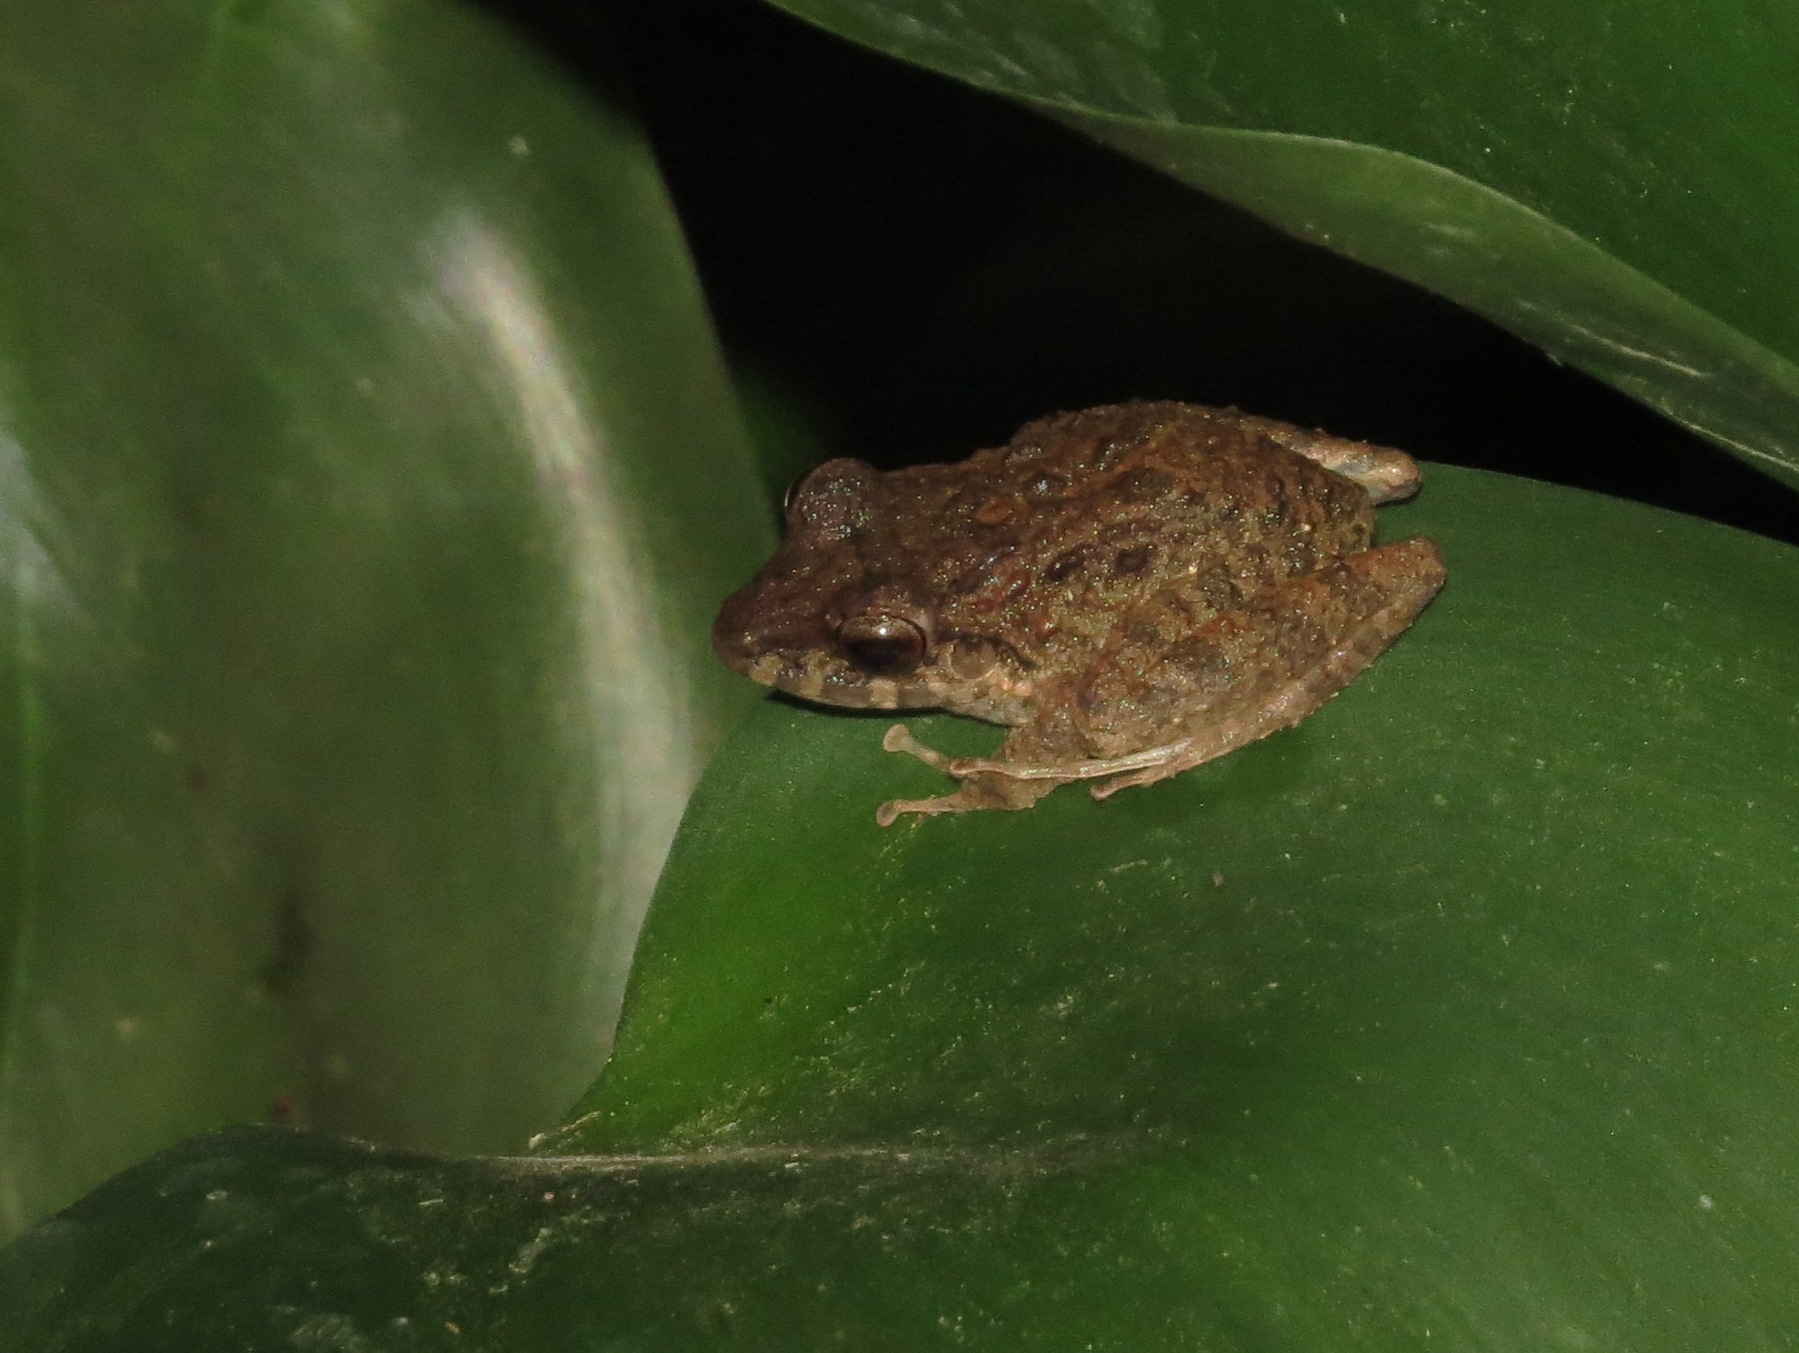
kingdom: Animalia
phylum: Chordata
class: Amphibia
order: Anura
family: Craugastoridae
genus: Craugastor
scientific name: Craugastor fitzingeri
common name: Fitzinger's robber frog
